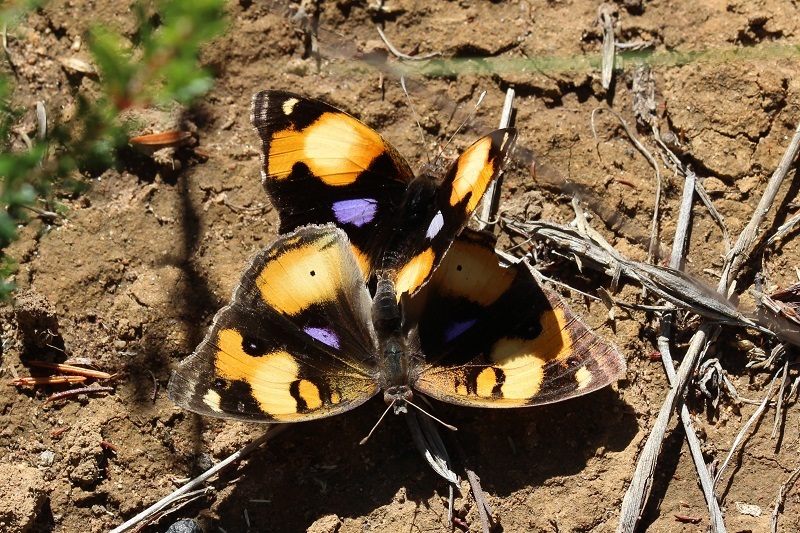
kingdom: Animalia
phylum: Arthropoda
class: Insecta
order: Lepidoptera
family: Nymphalidae
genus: Junonia
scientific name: Junonia hierta
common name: Yellow pansy
